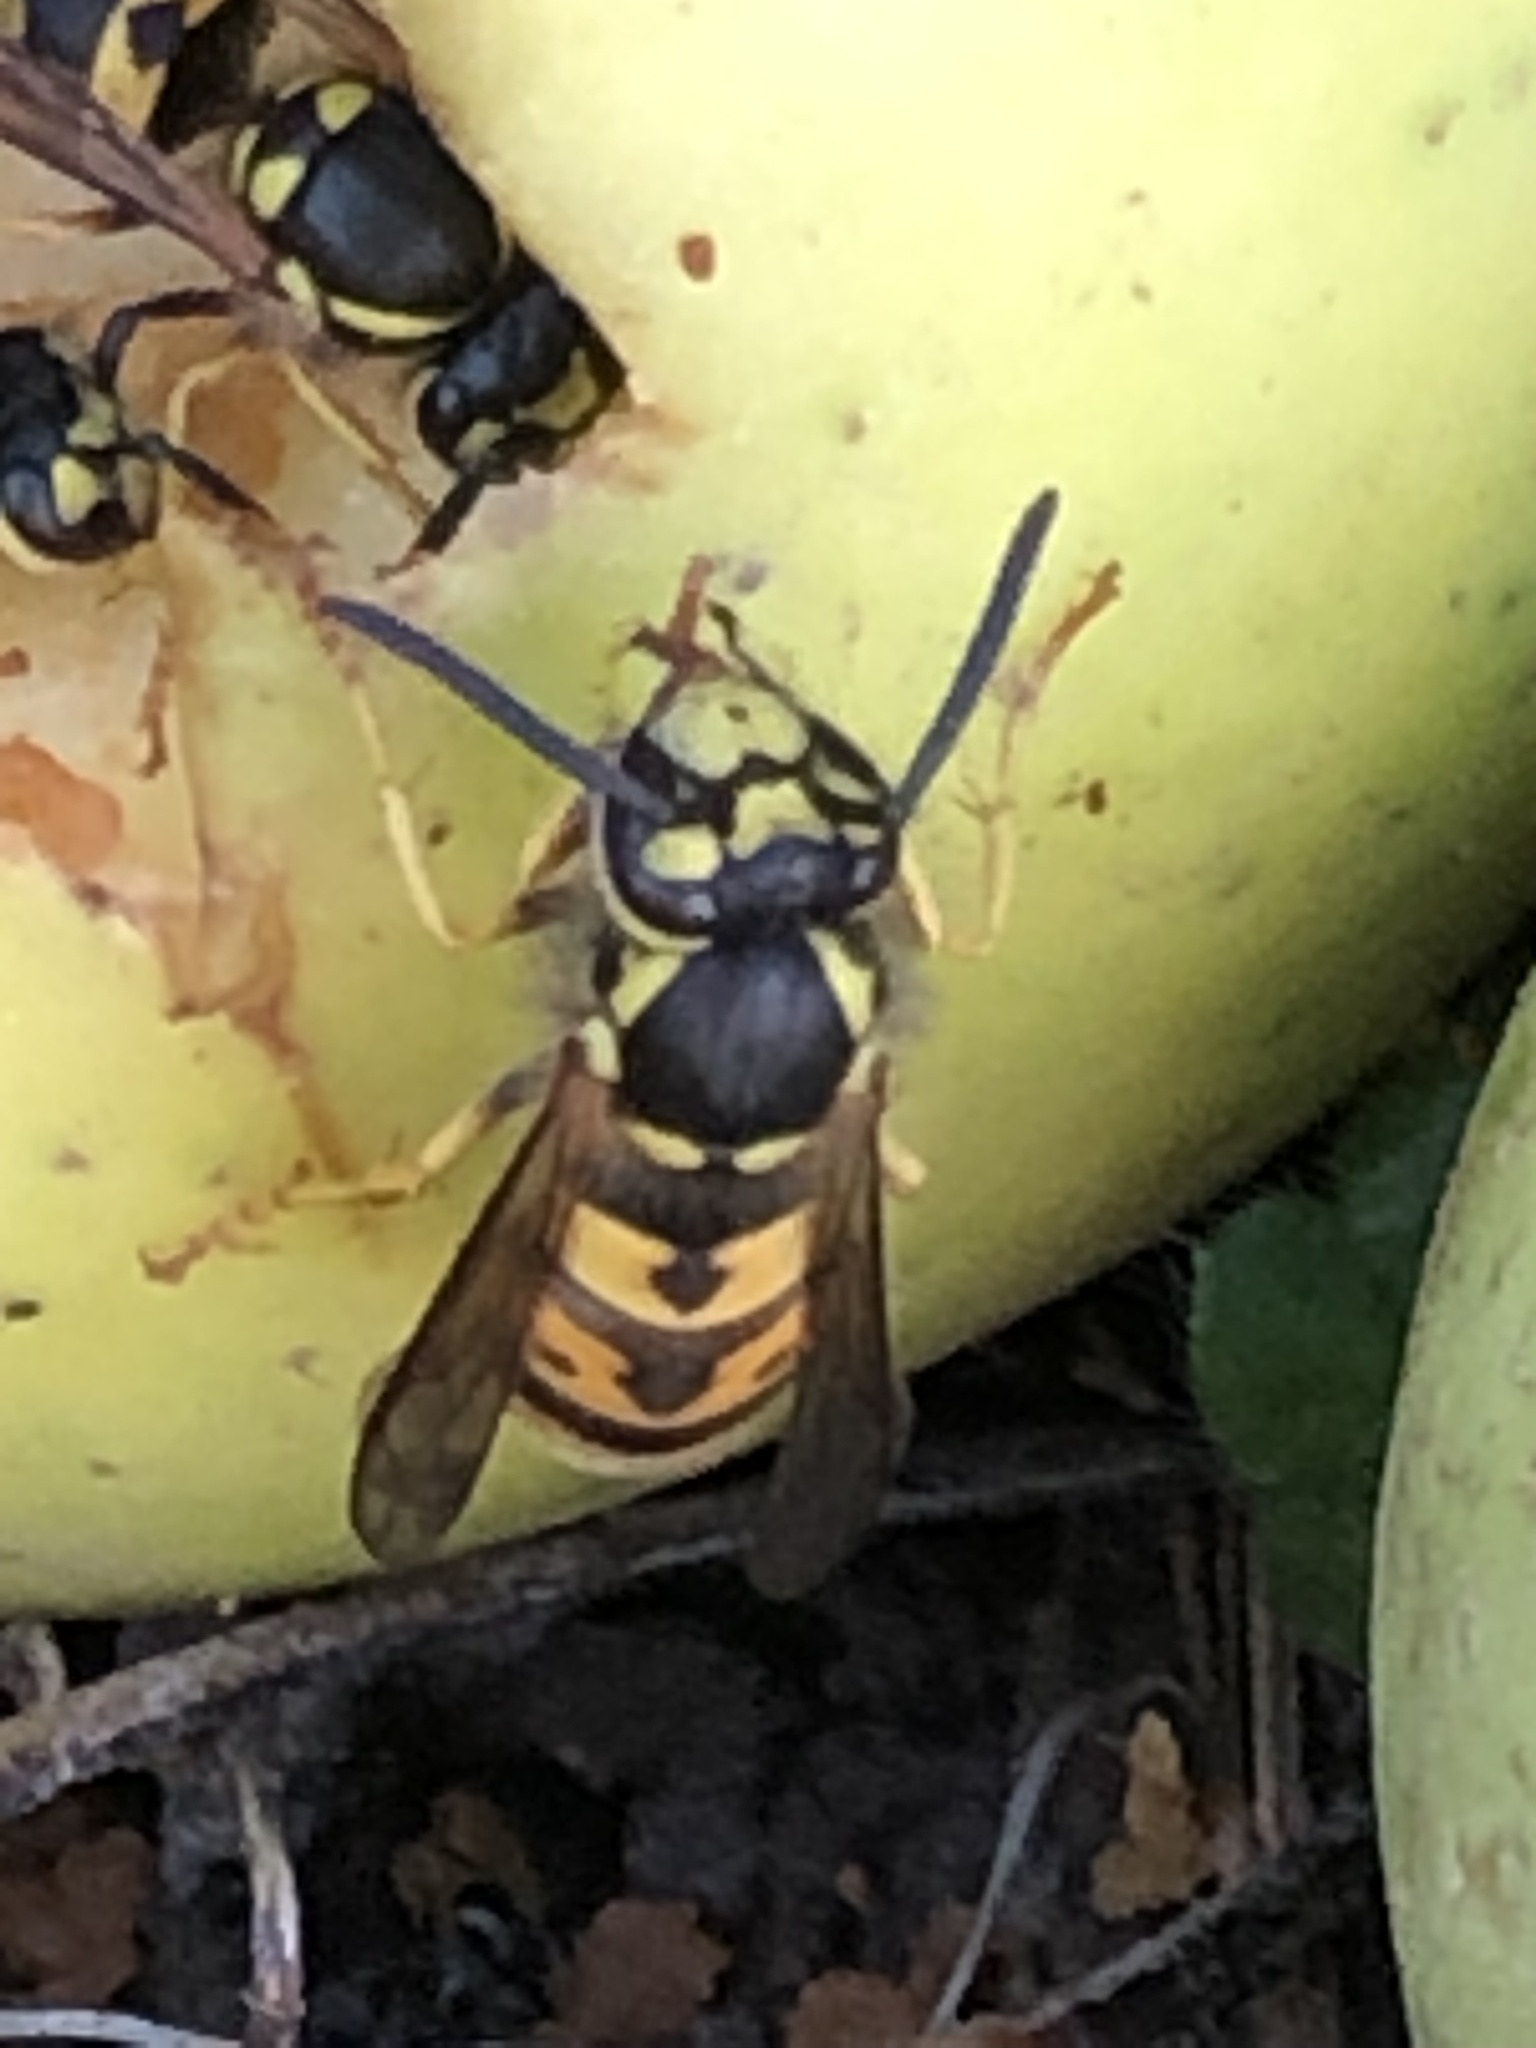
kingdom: Animalia
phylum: Arthropoda
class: Insecta
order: Hymenoptera
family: Vespidae
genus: Vespula
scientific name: Vespula germanica
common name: German wasp
